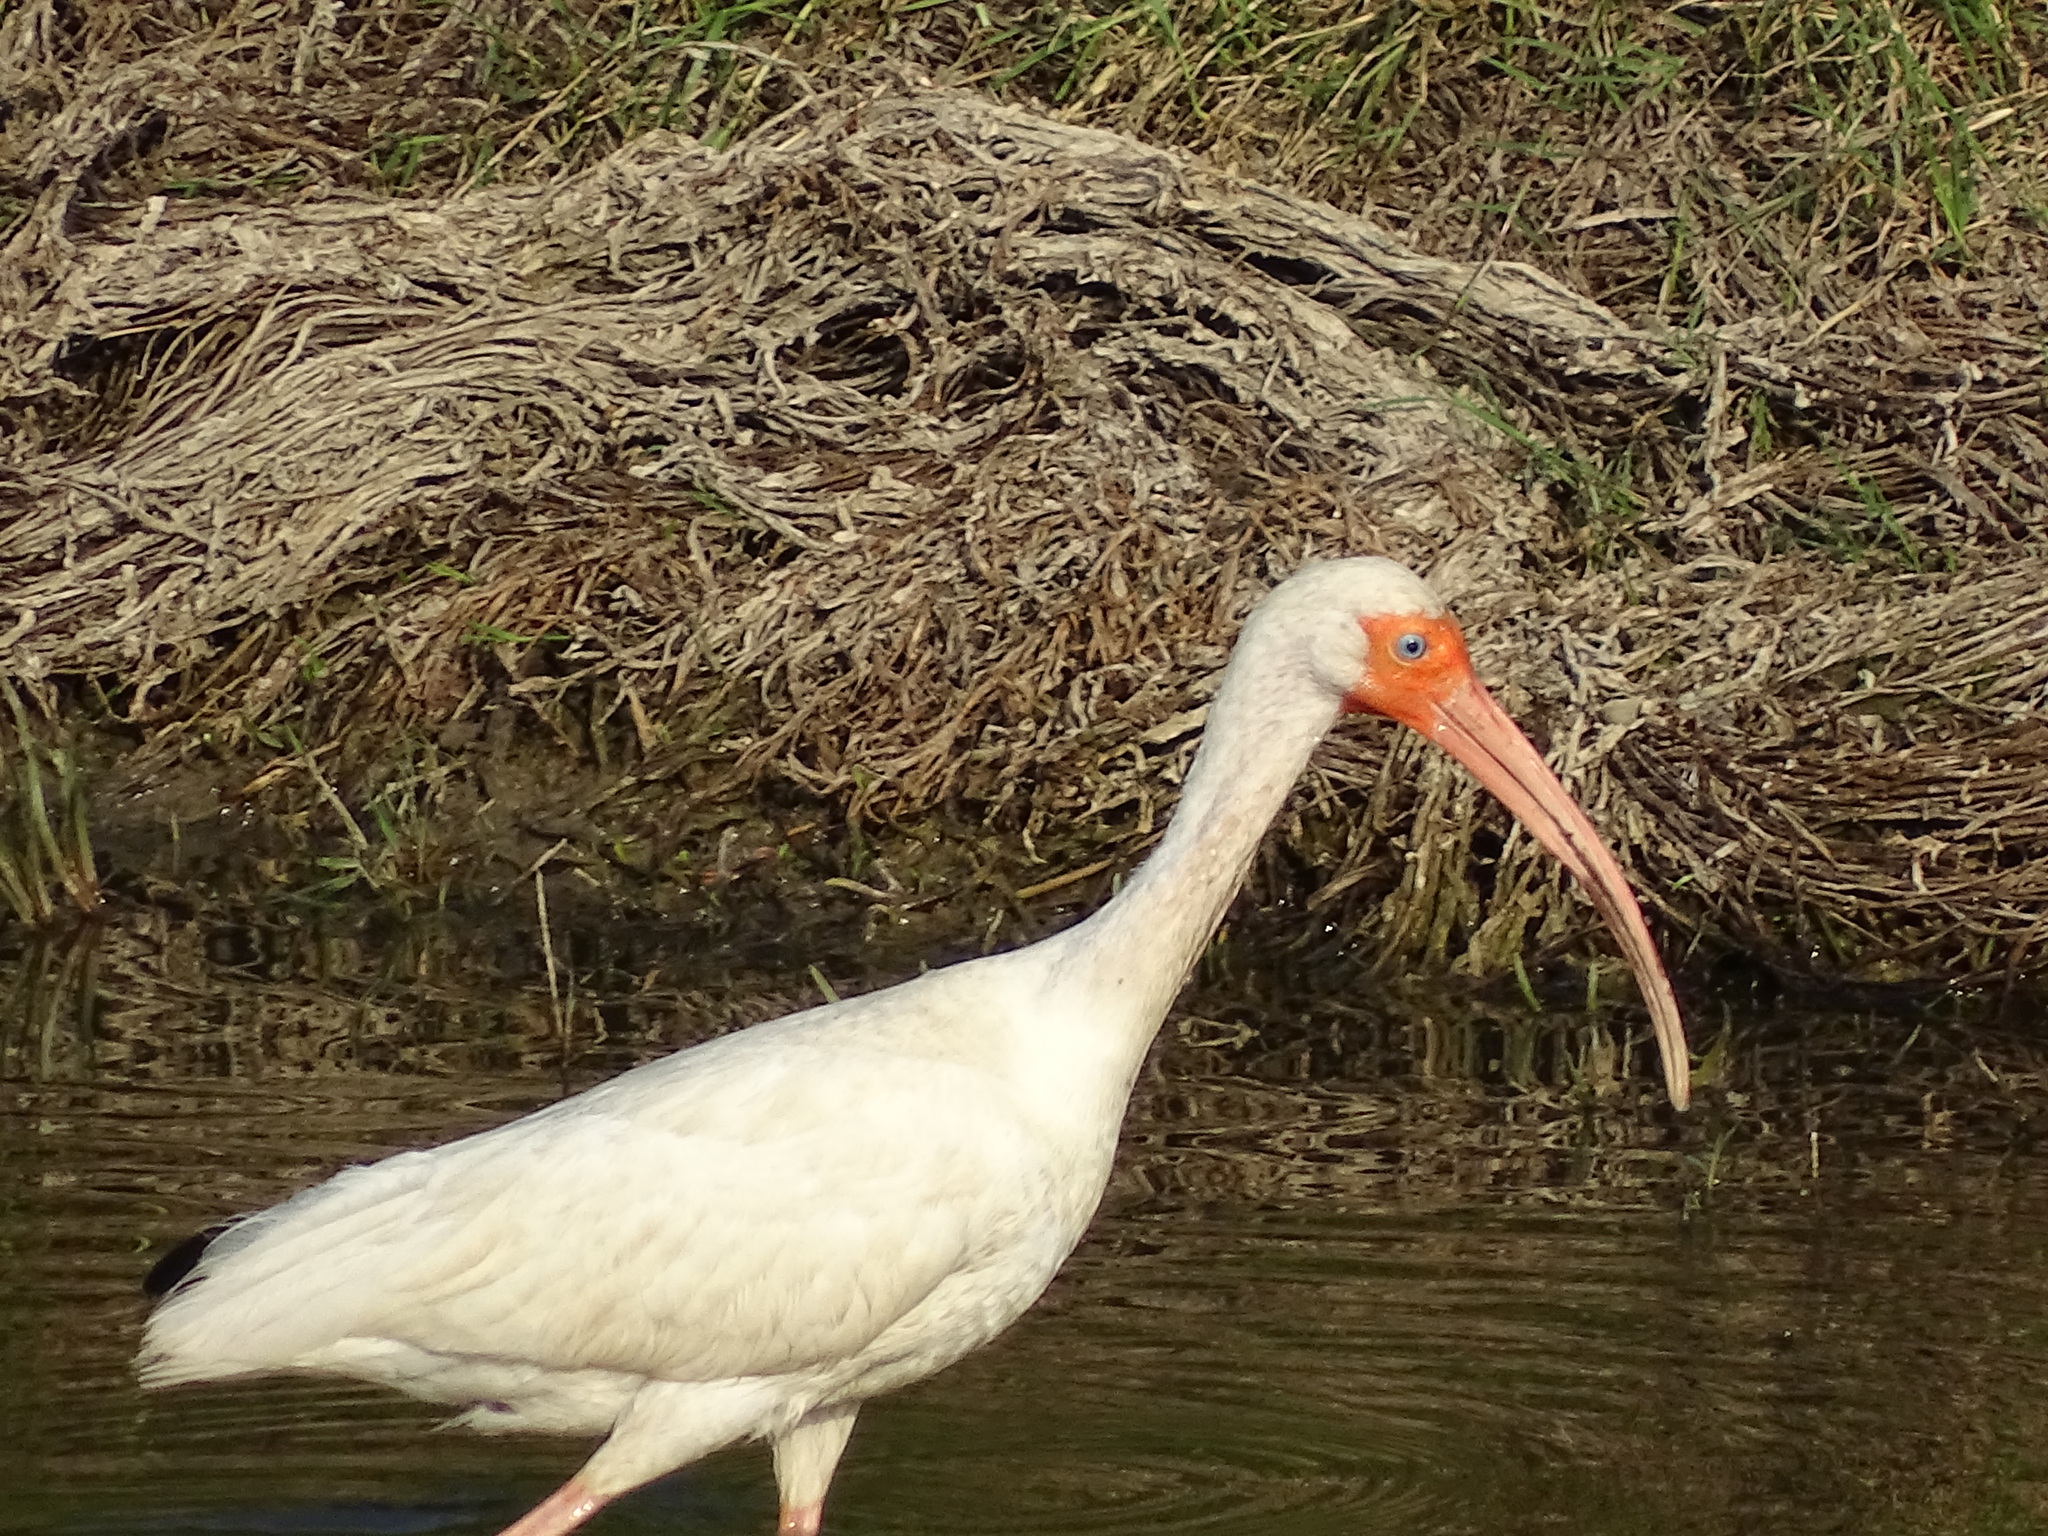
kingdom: Animalia
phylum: Chordata
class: Aves
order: Pelecaniformes
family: Threskiornithidae
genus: Eudocimus
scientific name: Eudocimus albus
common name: White ibis
